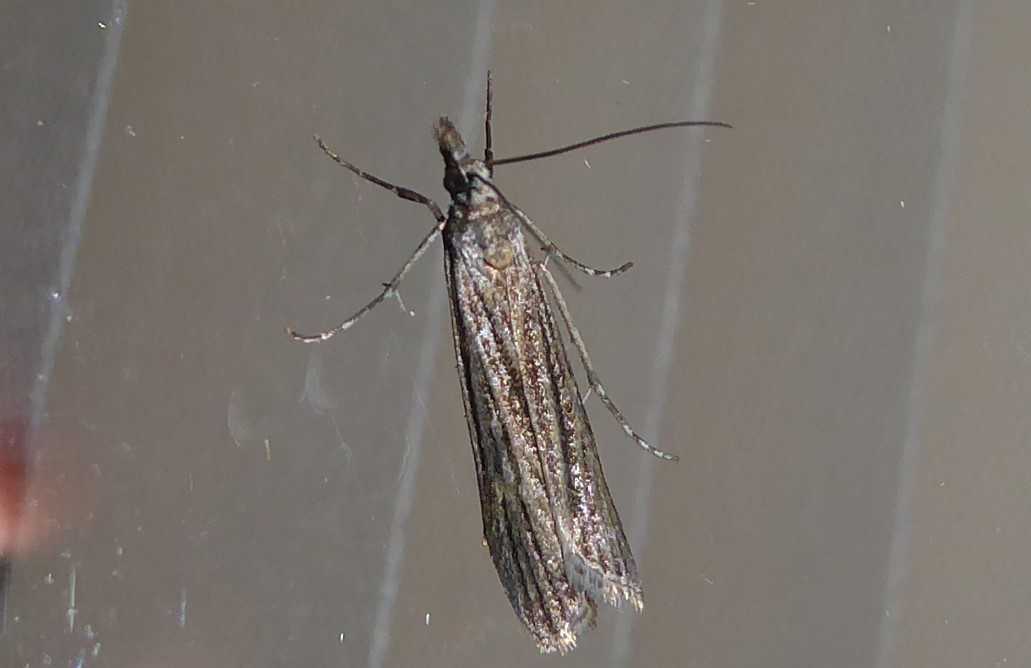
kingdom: Animalia
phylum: Arthropoda
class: Insecta
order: Lepidoptera
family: Crambidae
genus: Eudonia
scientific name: Eudonia atmogramma
